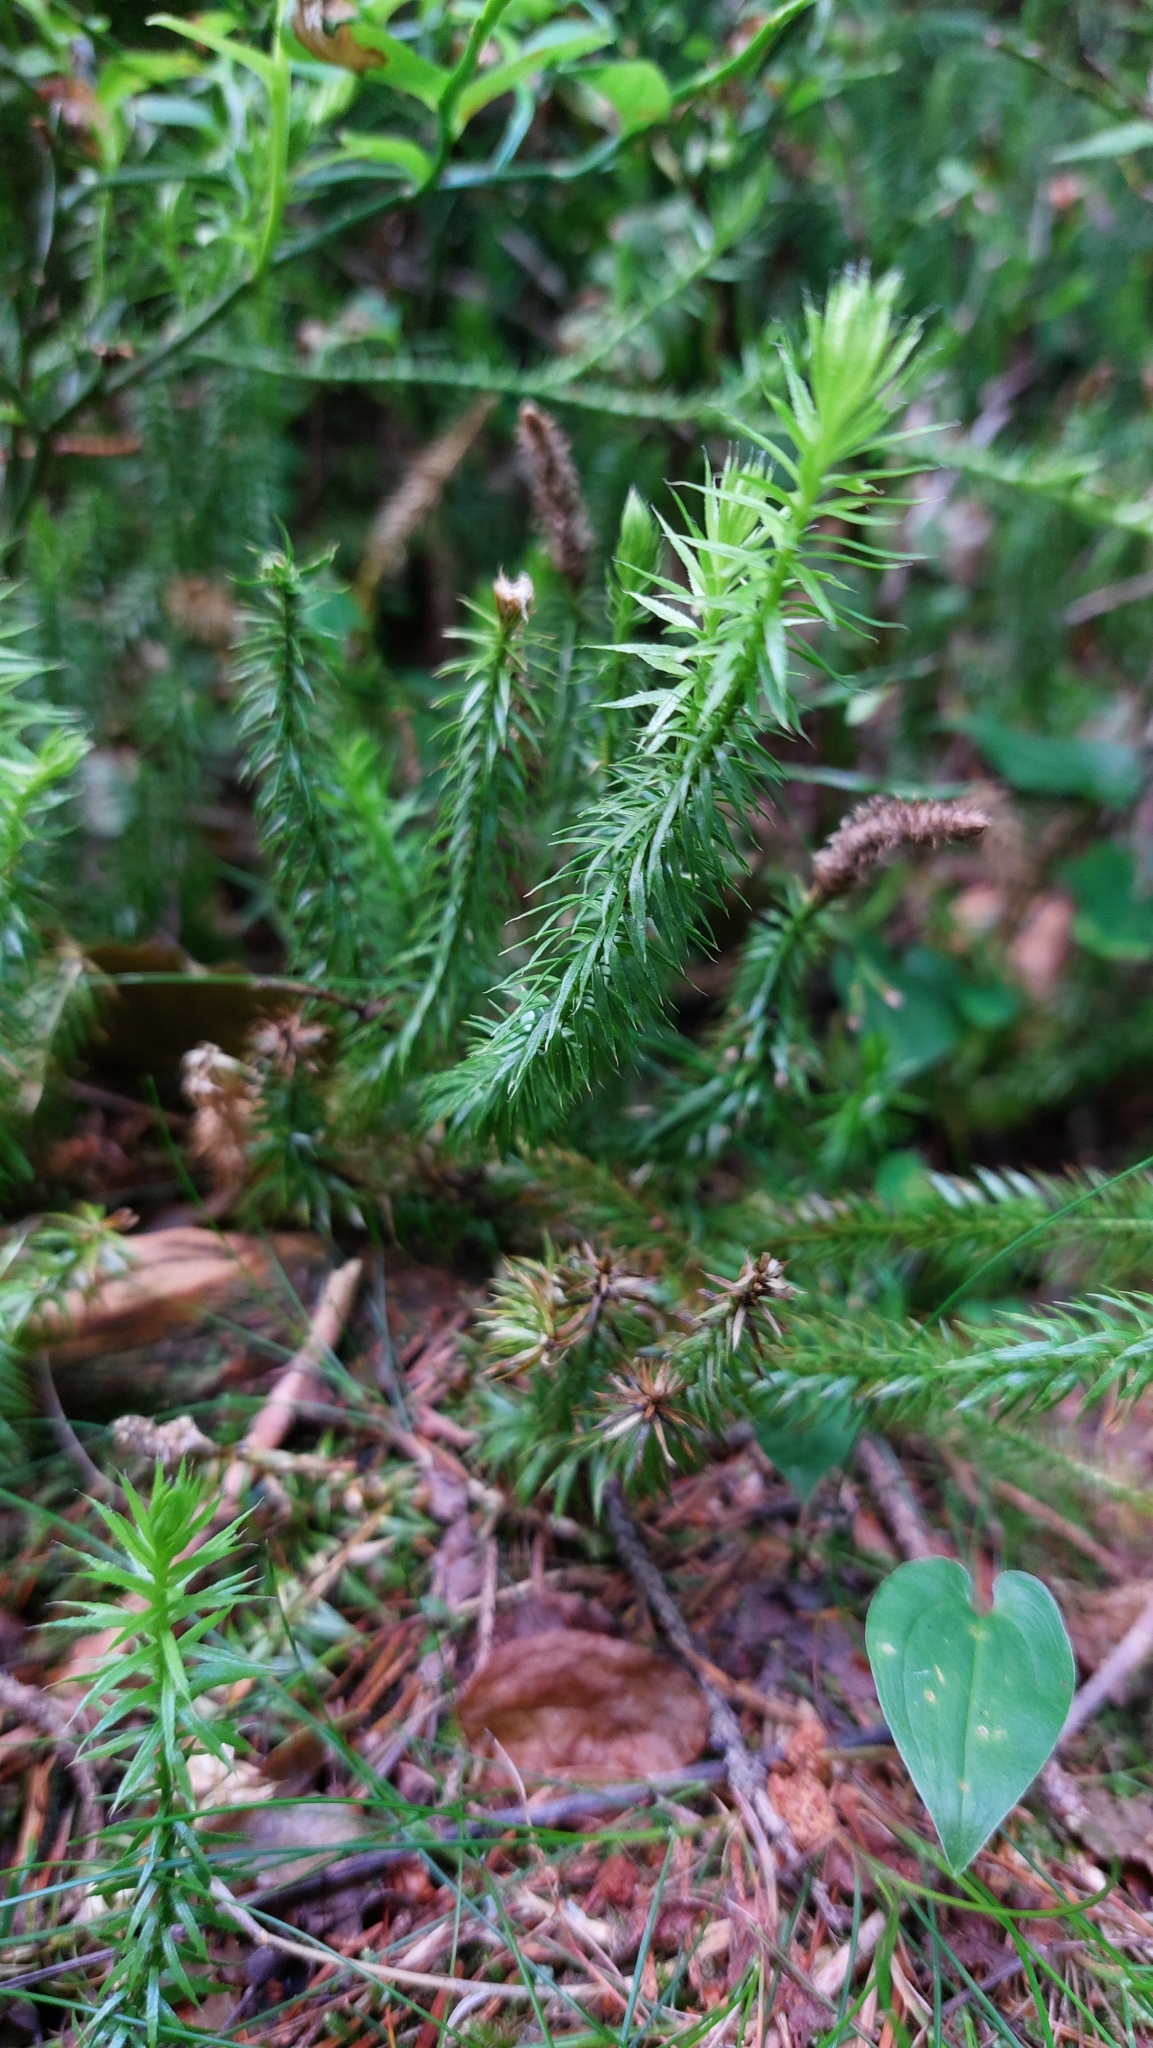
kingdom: Plantae
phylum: Tracheophyta
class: Lycopodiopsida
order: Lycopodiales
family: Lycopodiaceae
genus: Spinulum
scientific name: Spinulum annotinum
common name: Interrupted club-moss
